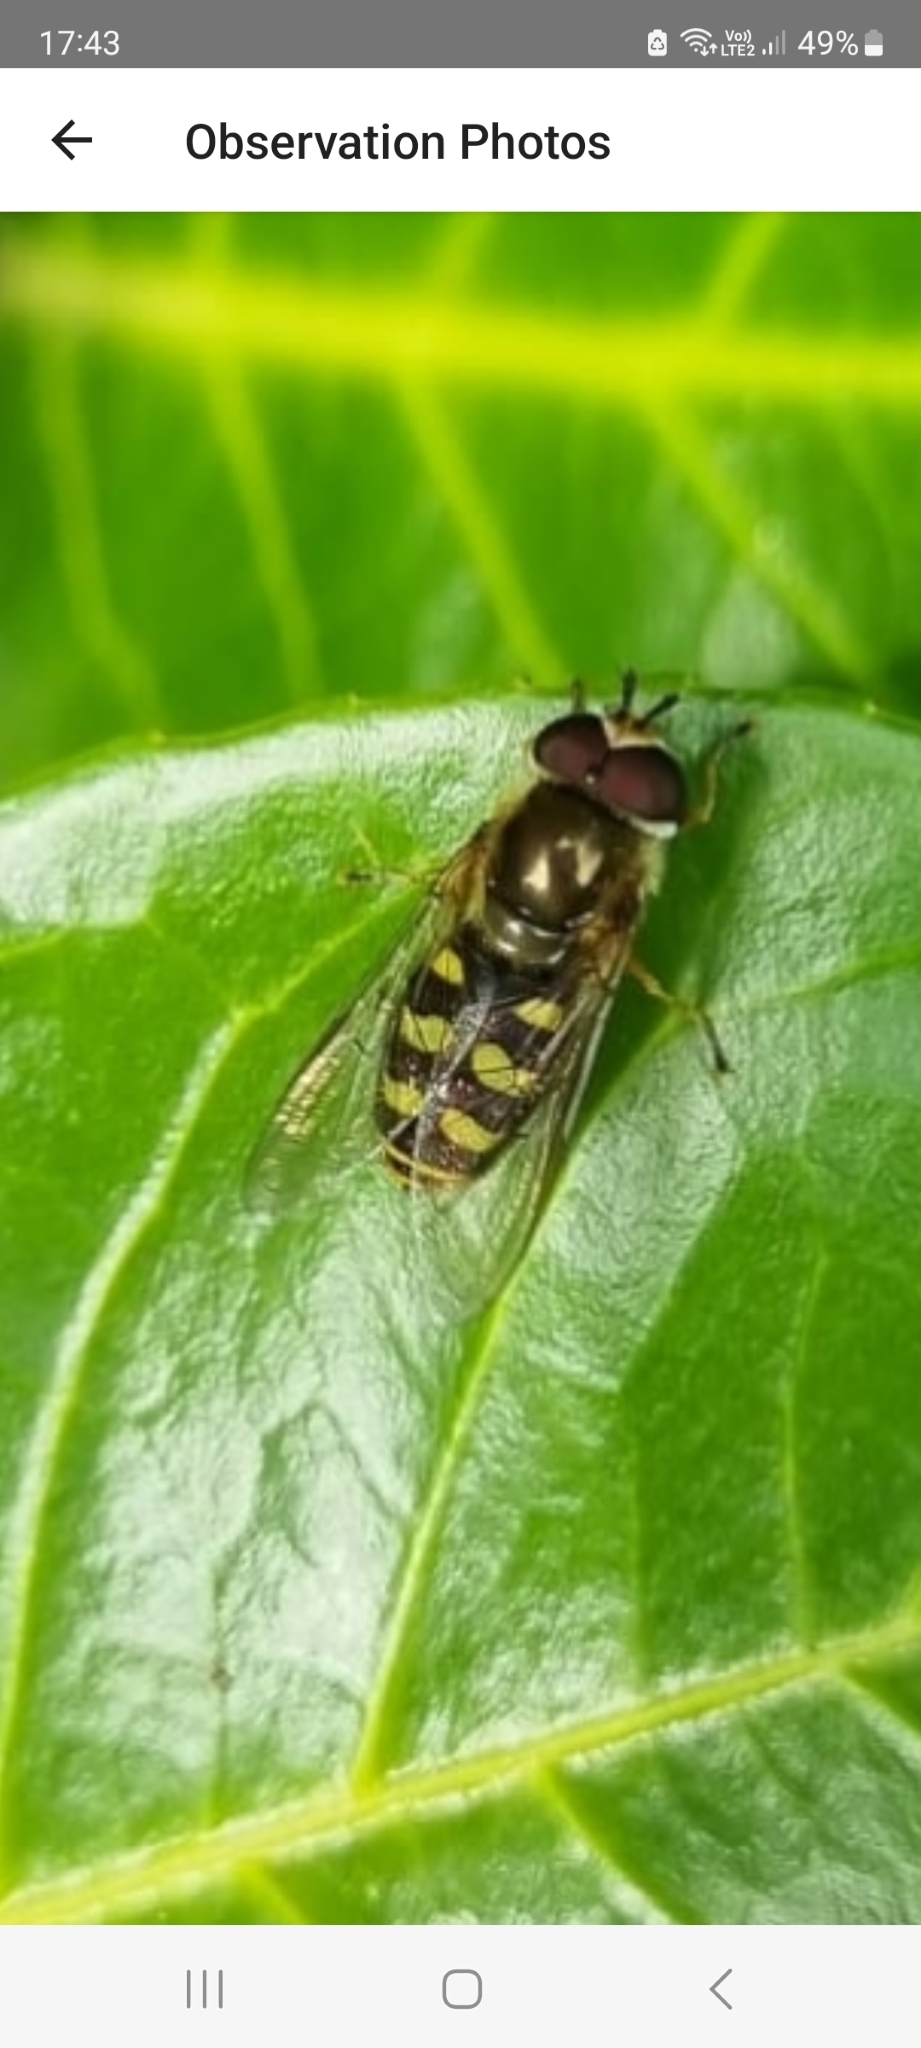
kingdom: Animalia
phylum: Arthropoda
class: Insecta
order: Diptera
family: Syrphidae
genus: Eupeodes
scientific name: Eupeodes
